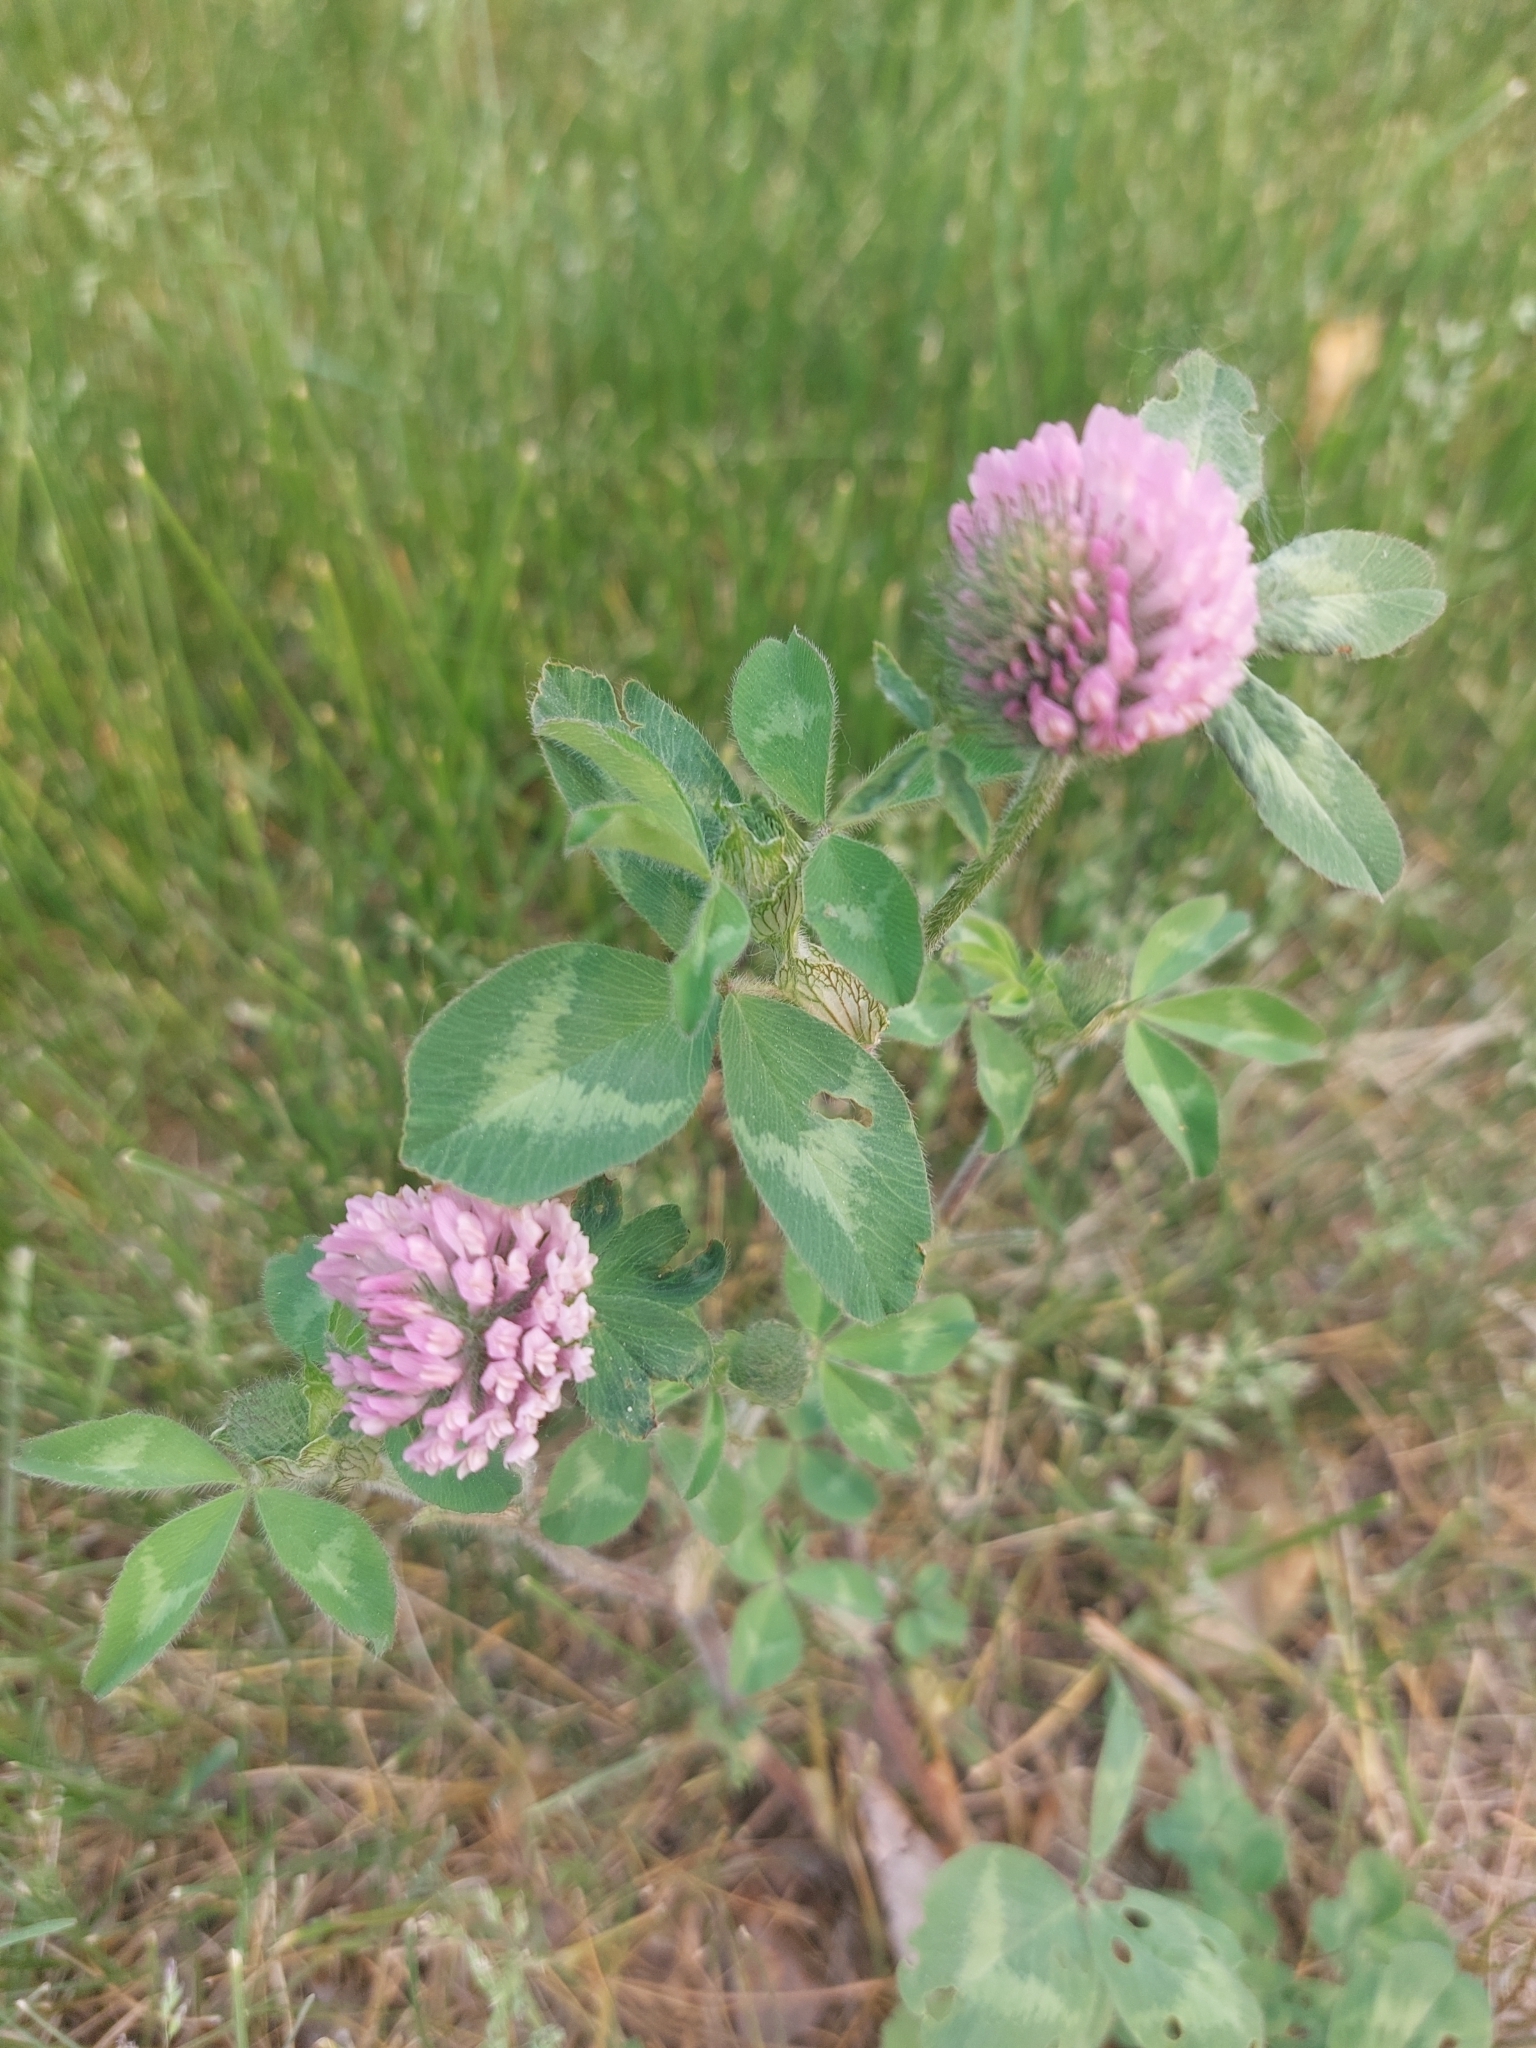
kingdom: Plantae
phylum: Tracheophyta
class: Magnoliopsida
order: Fabales
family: Fabaceae
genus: Trifolium
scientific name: Trifolium pratense
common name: Red clover
